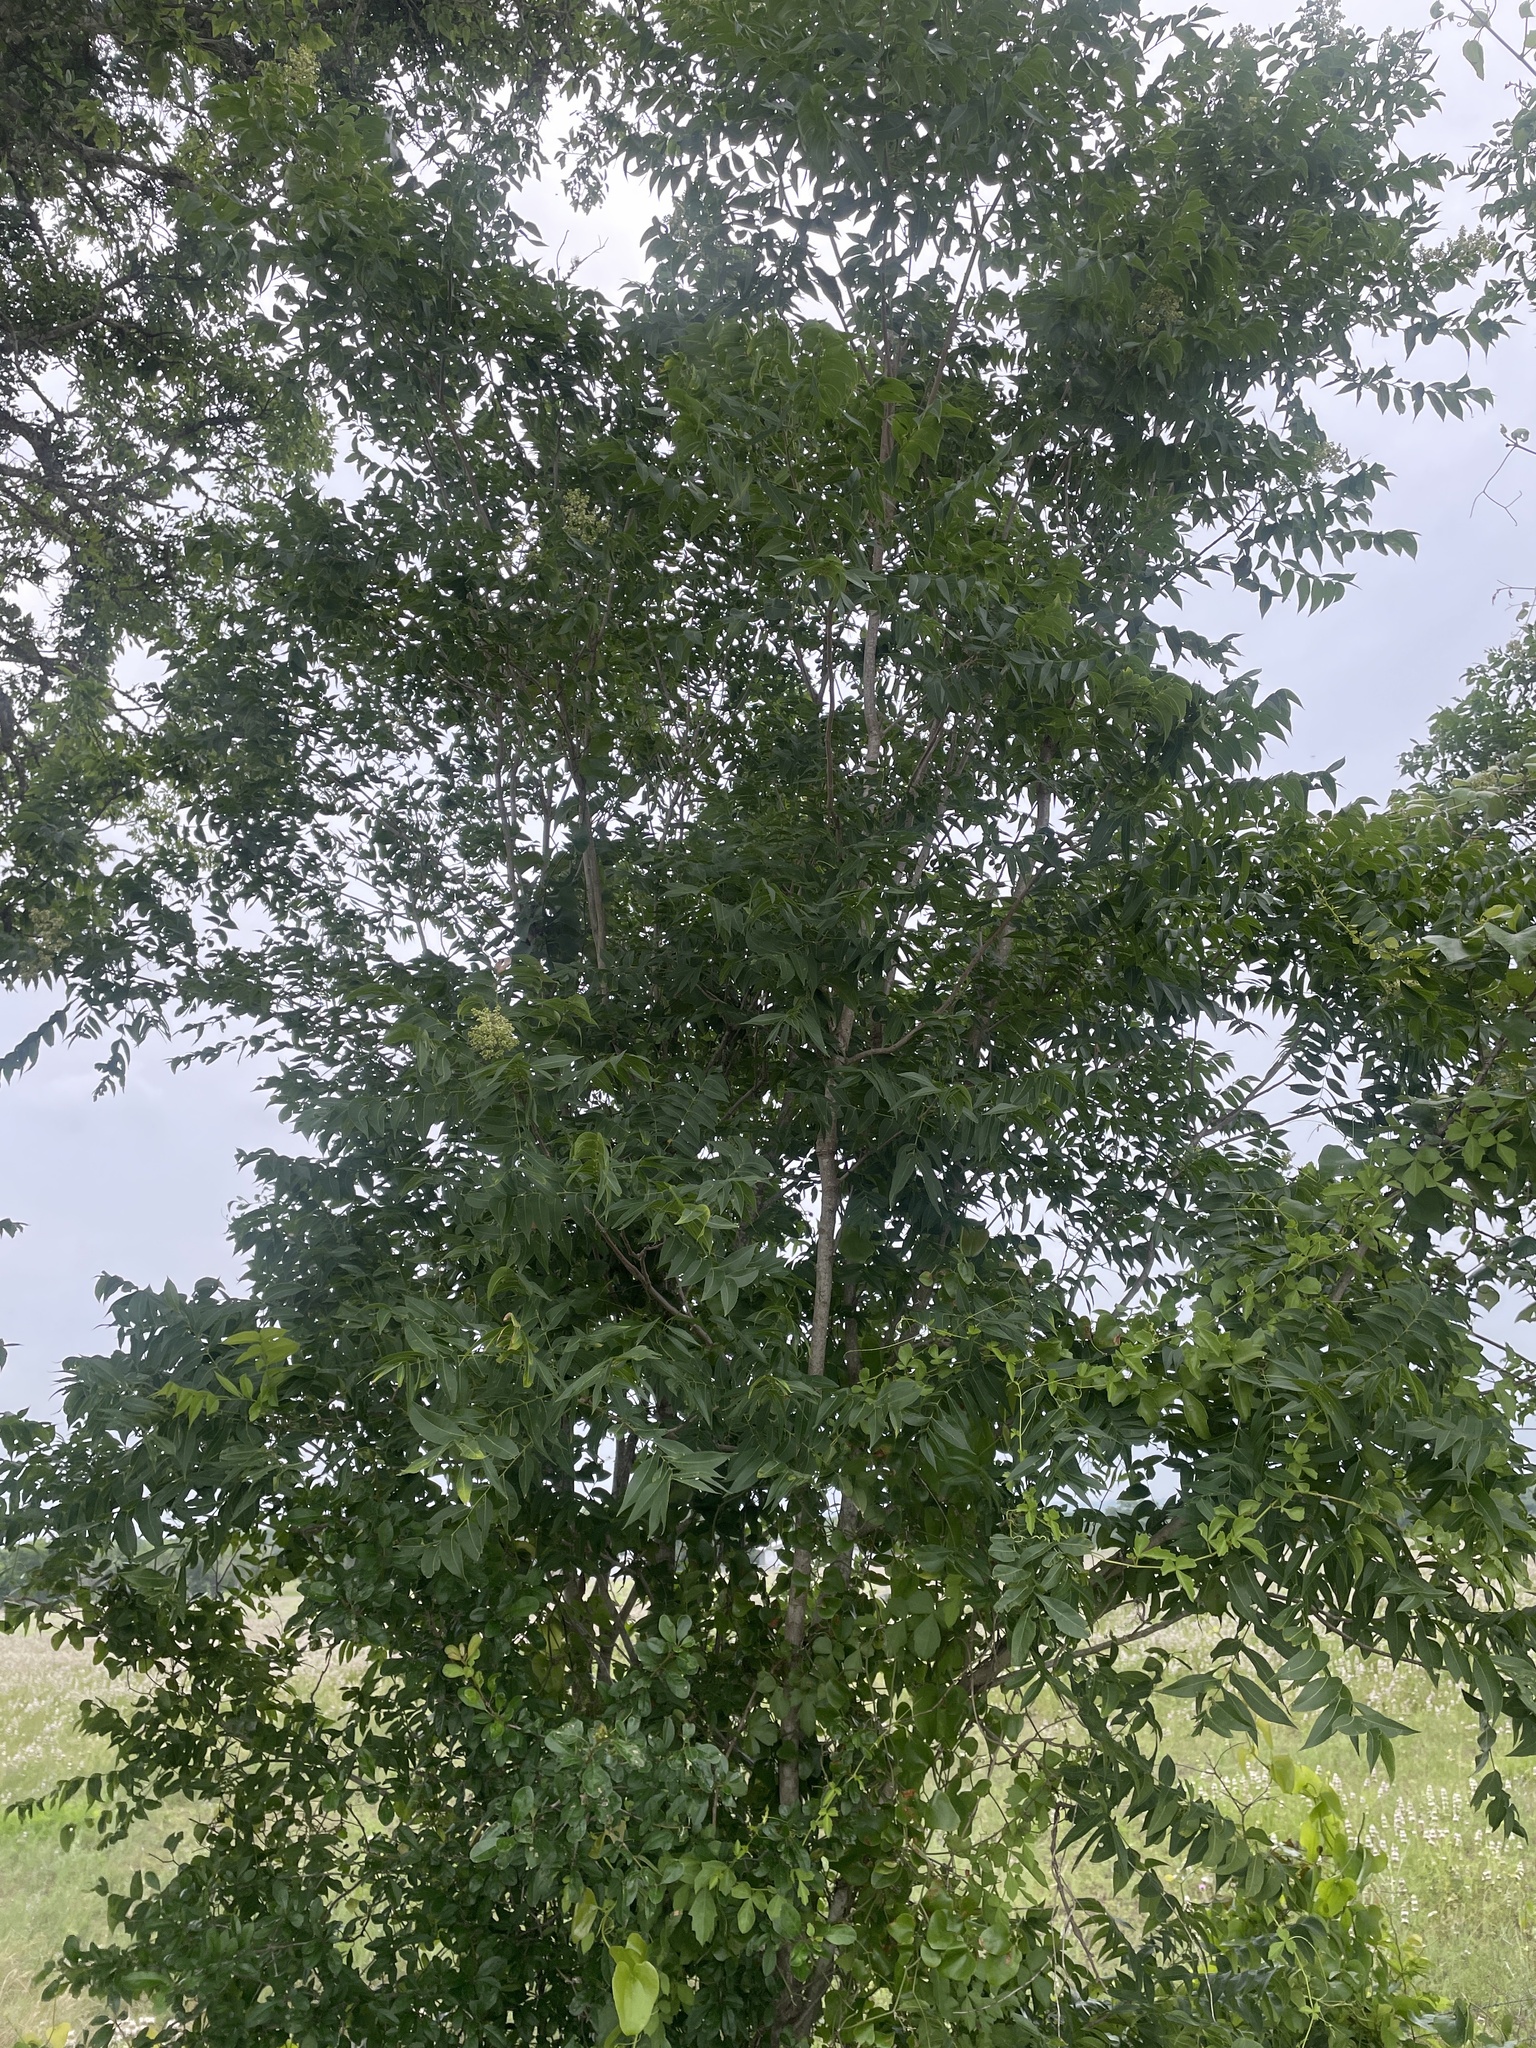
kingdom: Plantae
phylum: Tracheophyta
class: Magnoliopsida
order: Sapindales
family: Sapindaceae
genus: Sapindus
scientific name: Sapindus drummondii
